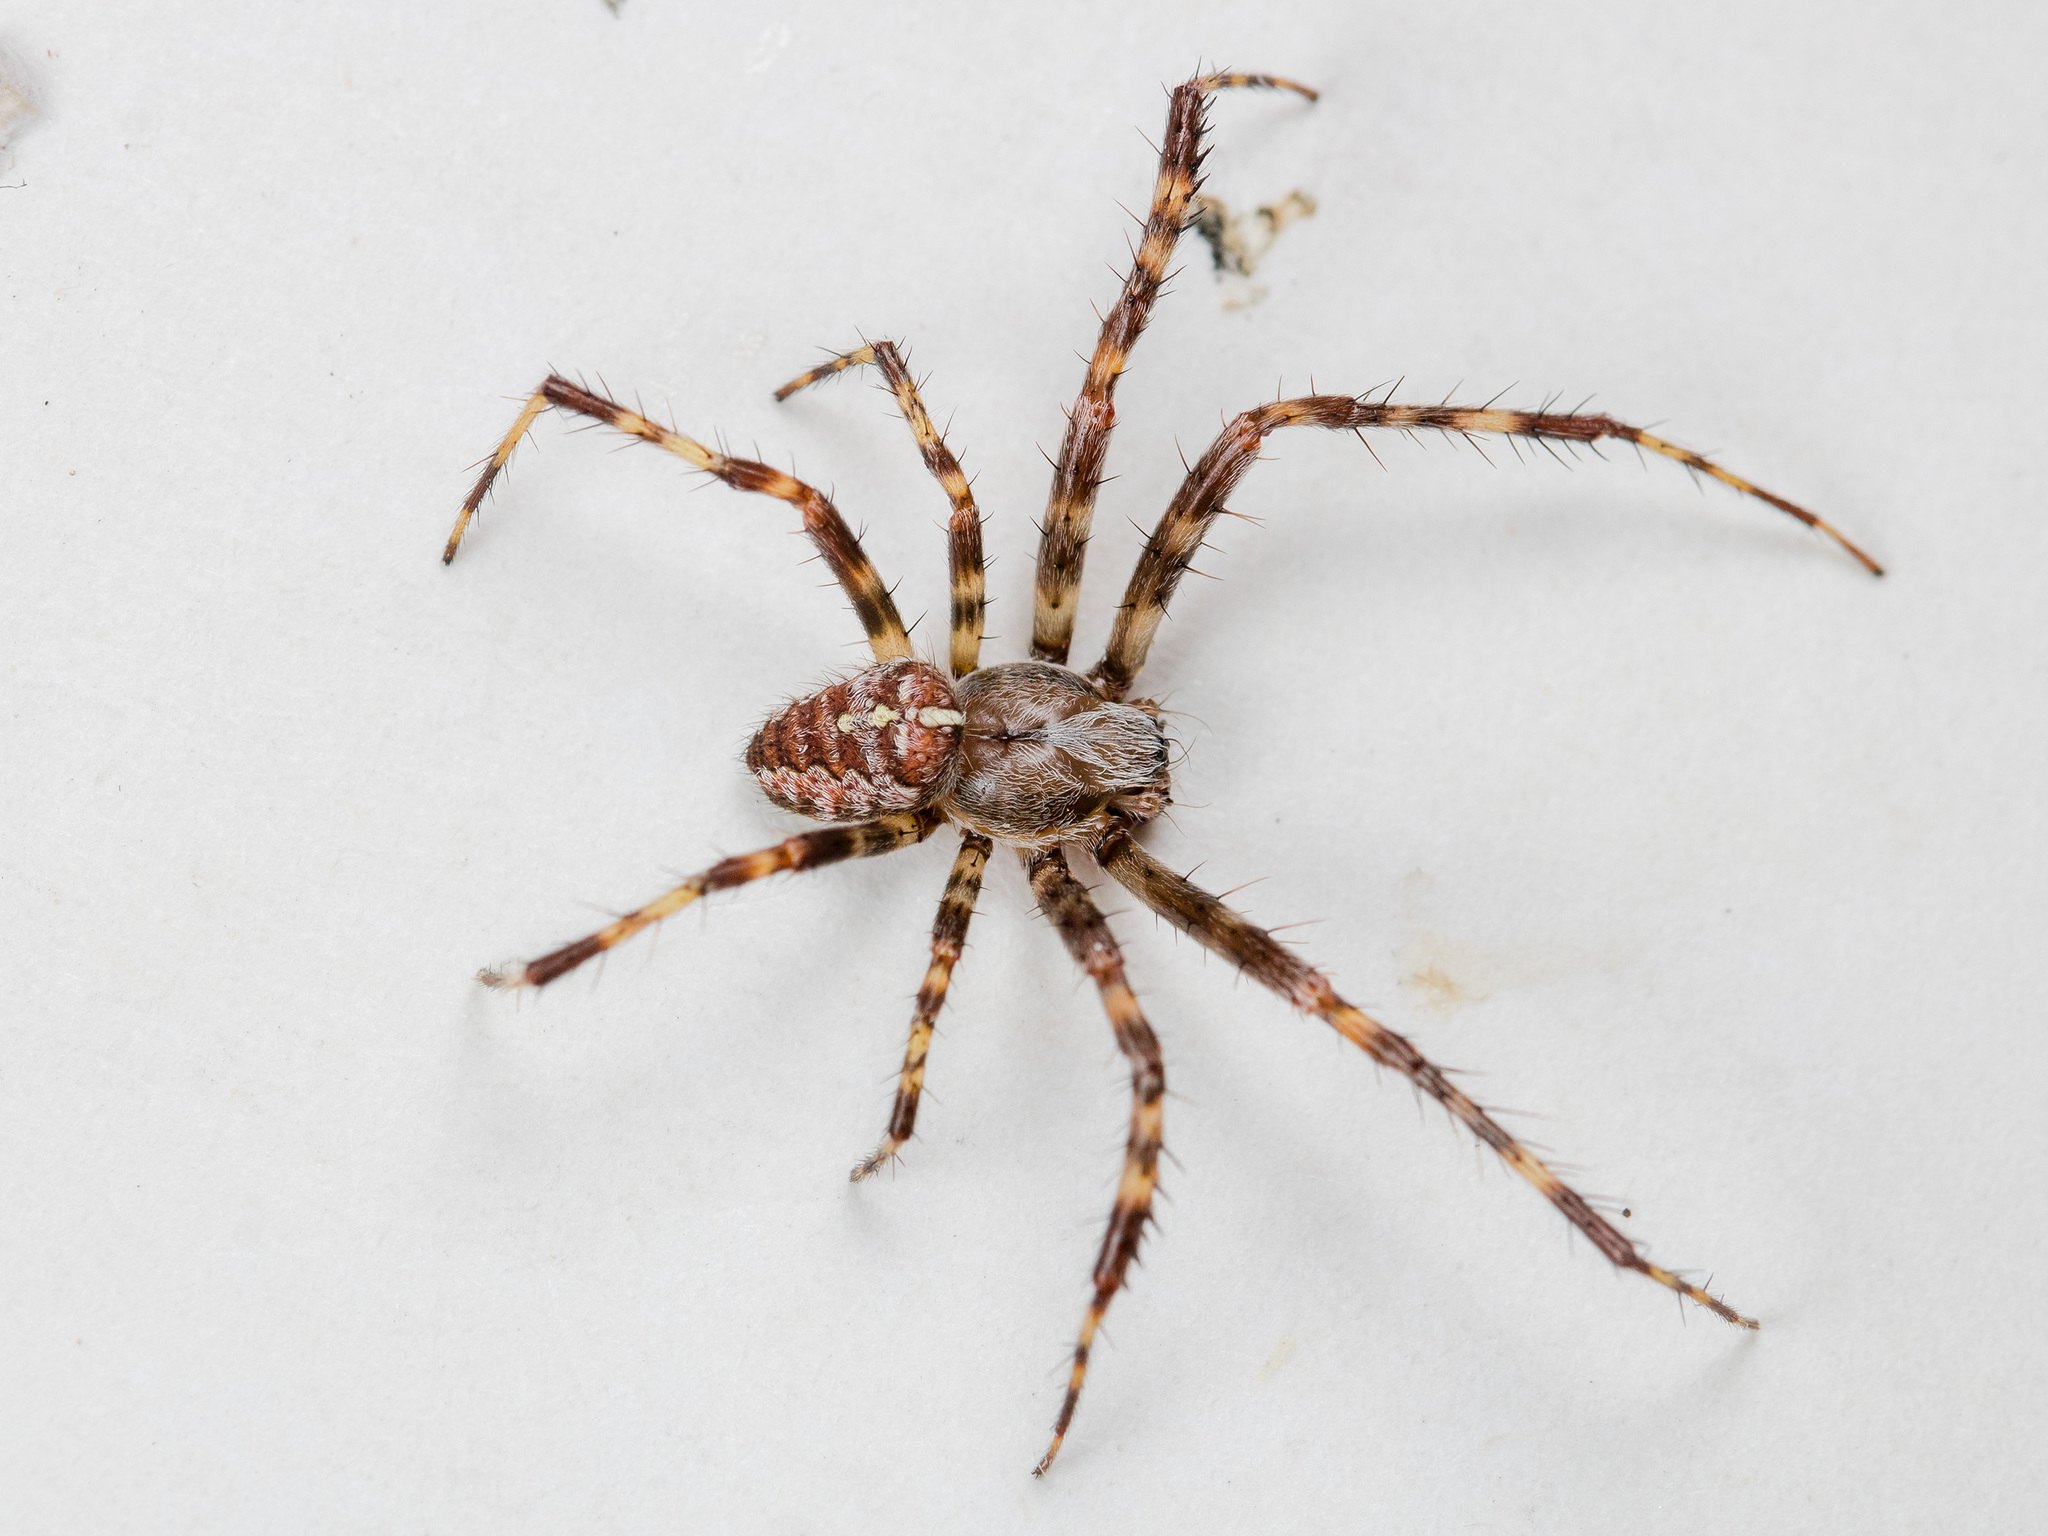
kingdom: Animalia
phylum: Arthropoda
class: Arachnida
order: Araneae
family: Araneidae
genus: Araneus
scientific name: Araneus diadematus
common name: Cross orbweaver
